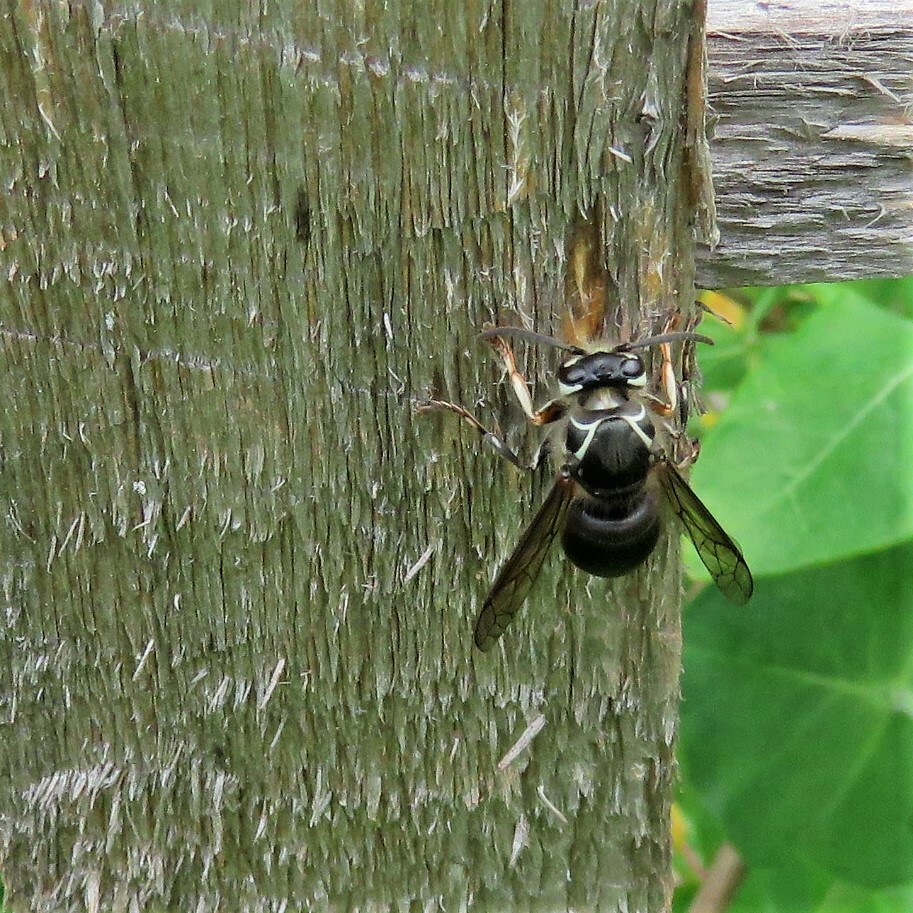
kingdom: Animalia
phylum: Arthropoda
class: Insecta
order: Hymenoptera
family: Vespidae
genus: Dolichovespula
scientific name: Dolichovespula maculata
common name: Bald-faced hornet
